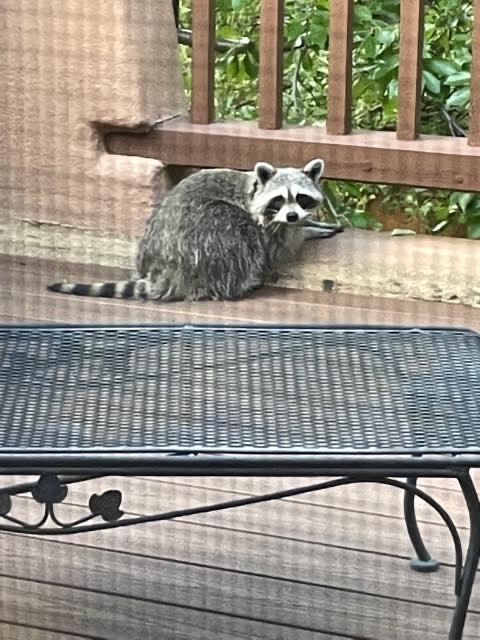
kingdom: Animalia
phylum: Chordata
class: Mammalia
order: Carnivora
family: Procyonidae
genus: Procyon
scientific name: Procyon lotor
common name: Raccoon
